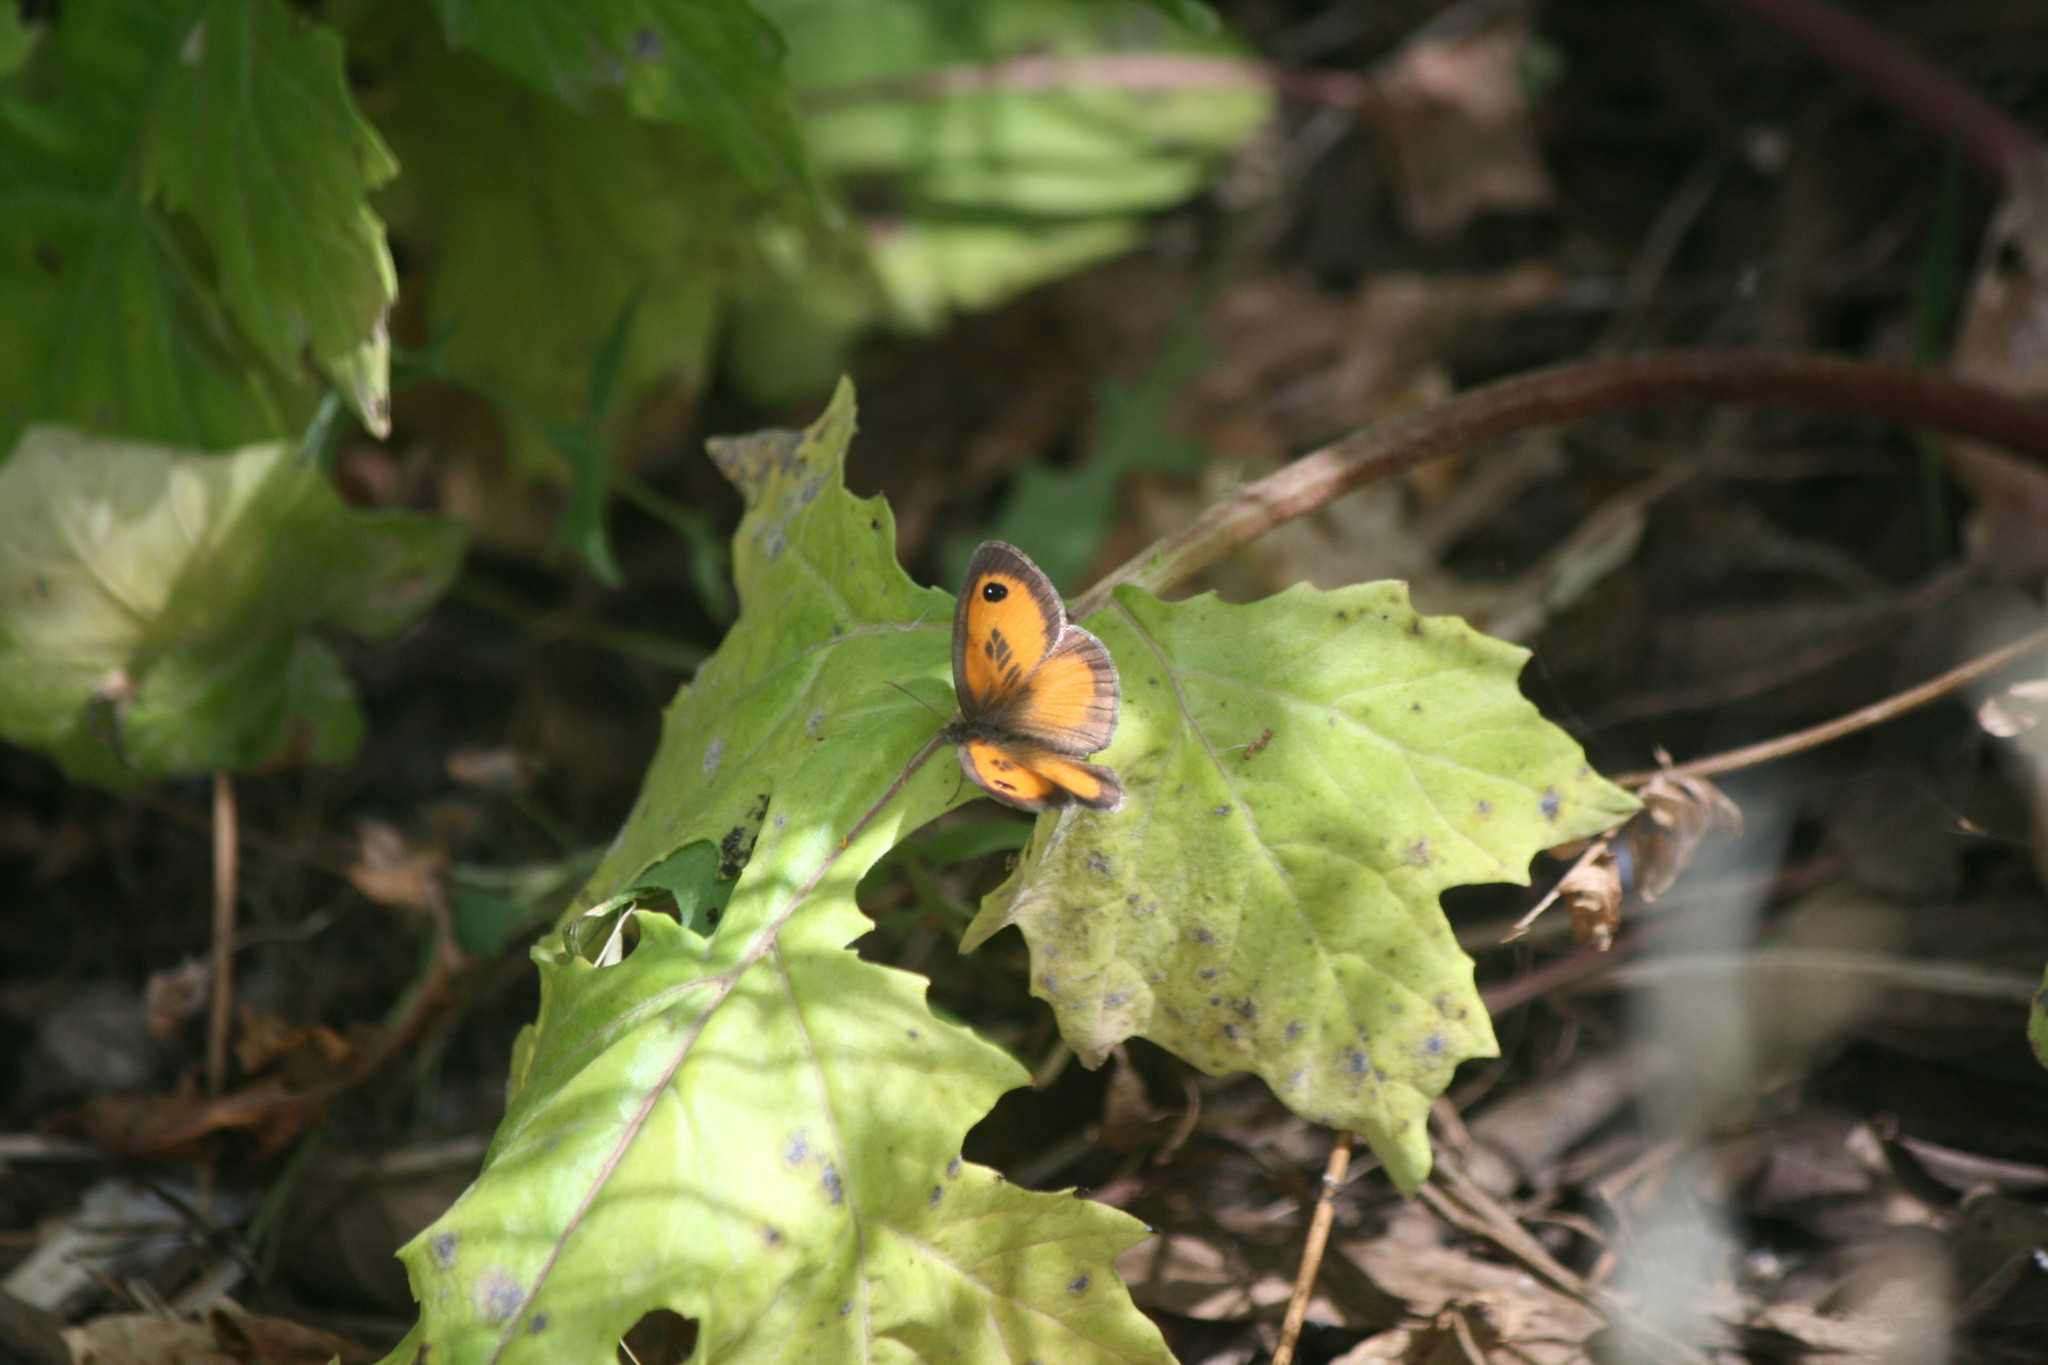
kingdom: Animalia
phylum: Arthropoda
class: Insecta
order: Lepidoptera
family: Nymphalidae
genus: Pyronia
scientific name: Pyronia cecilia
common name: Southern gatekeeper
